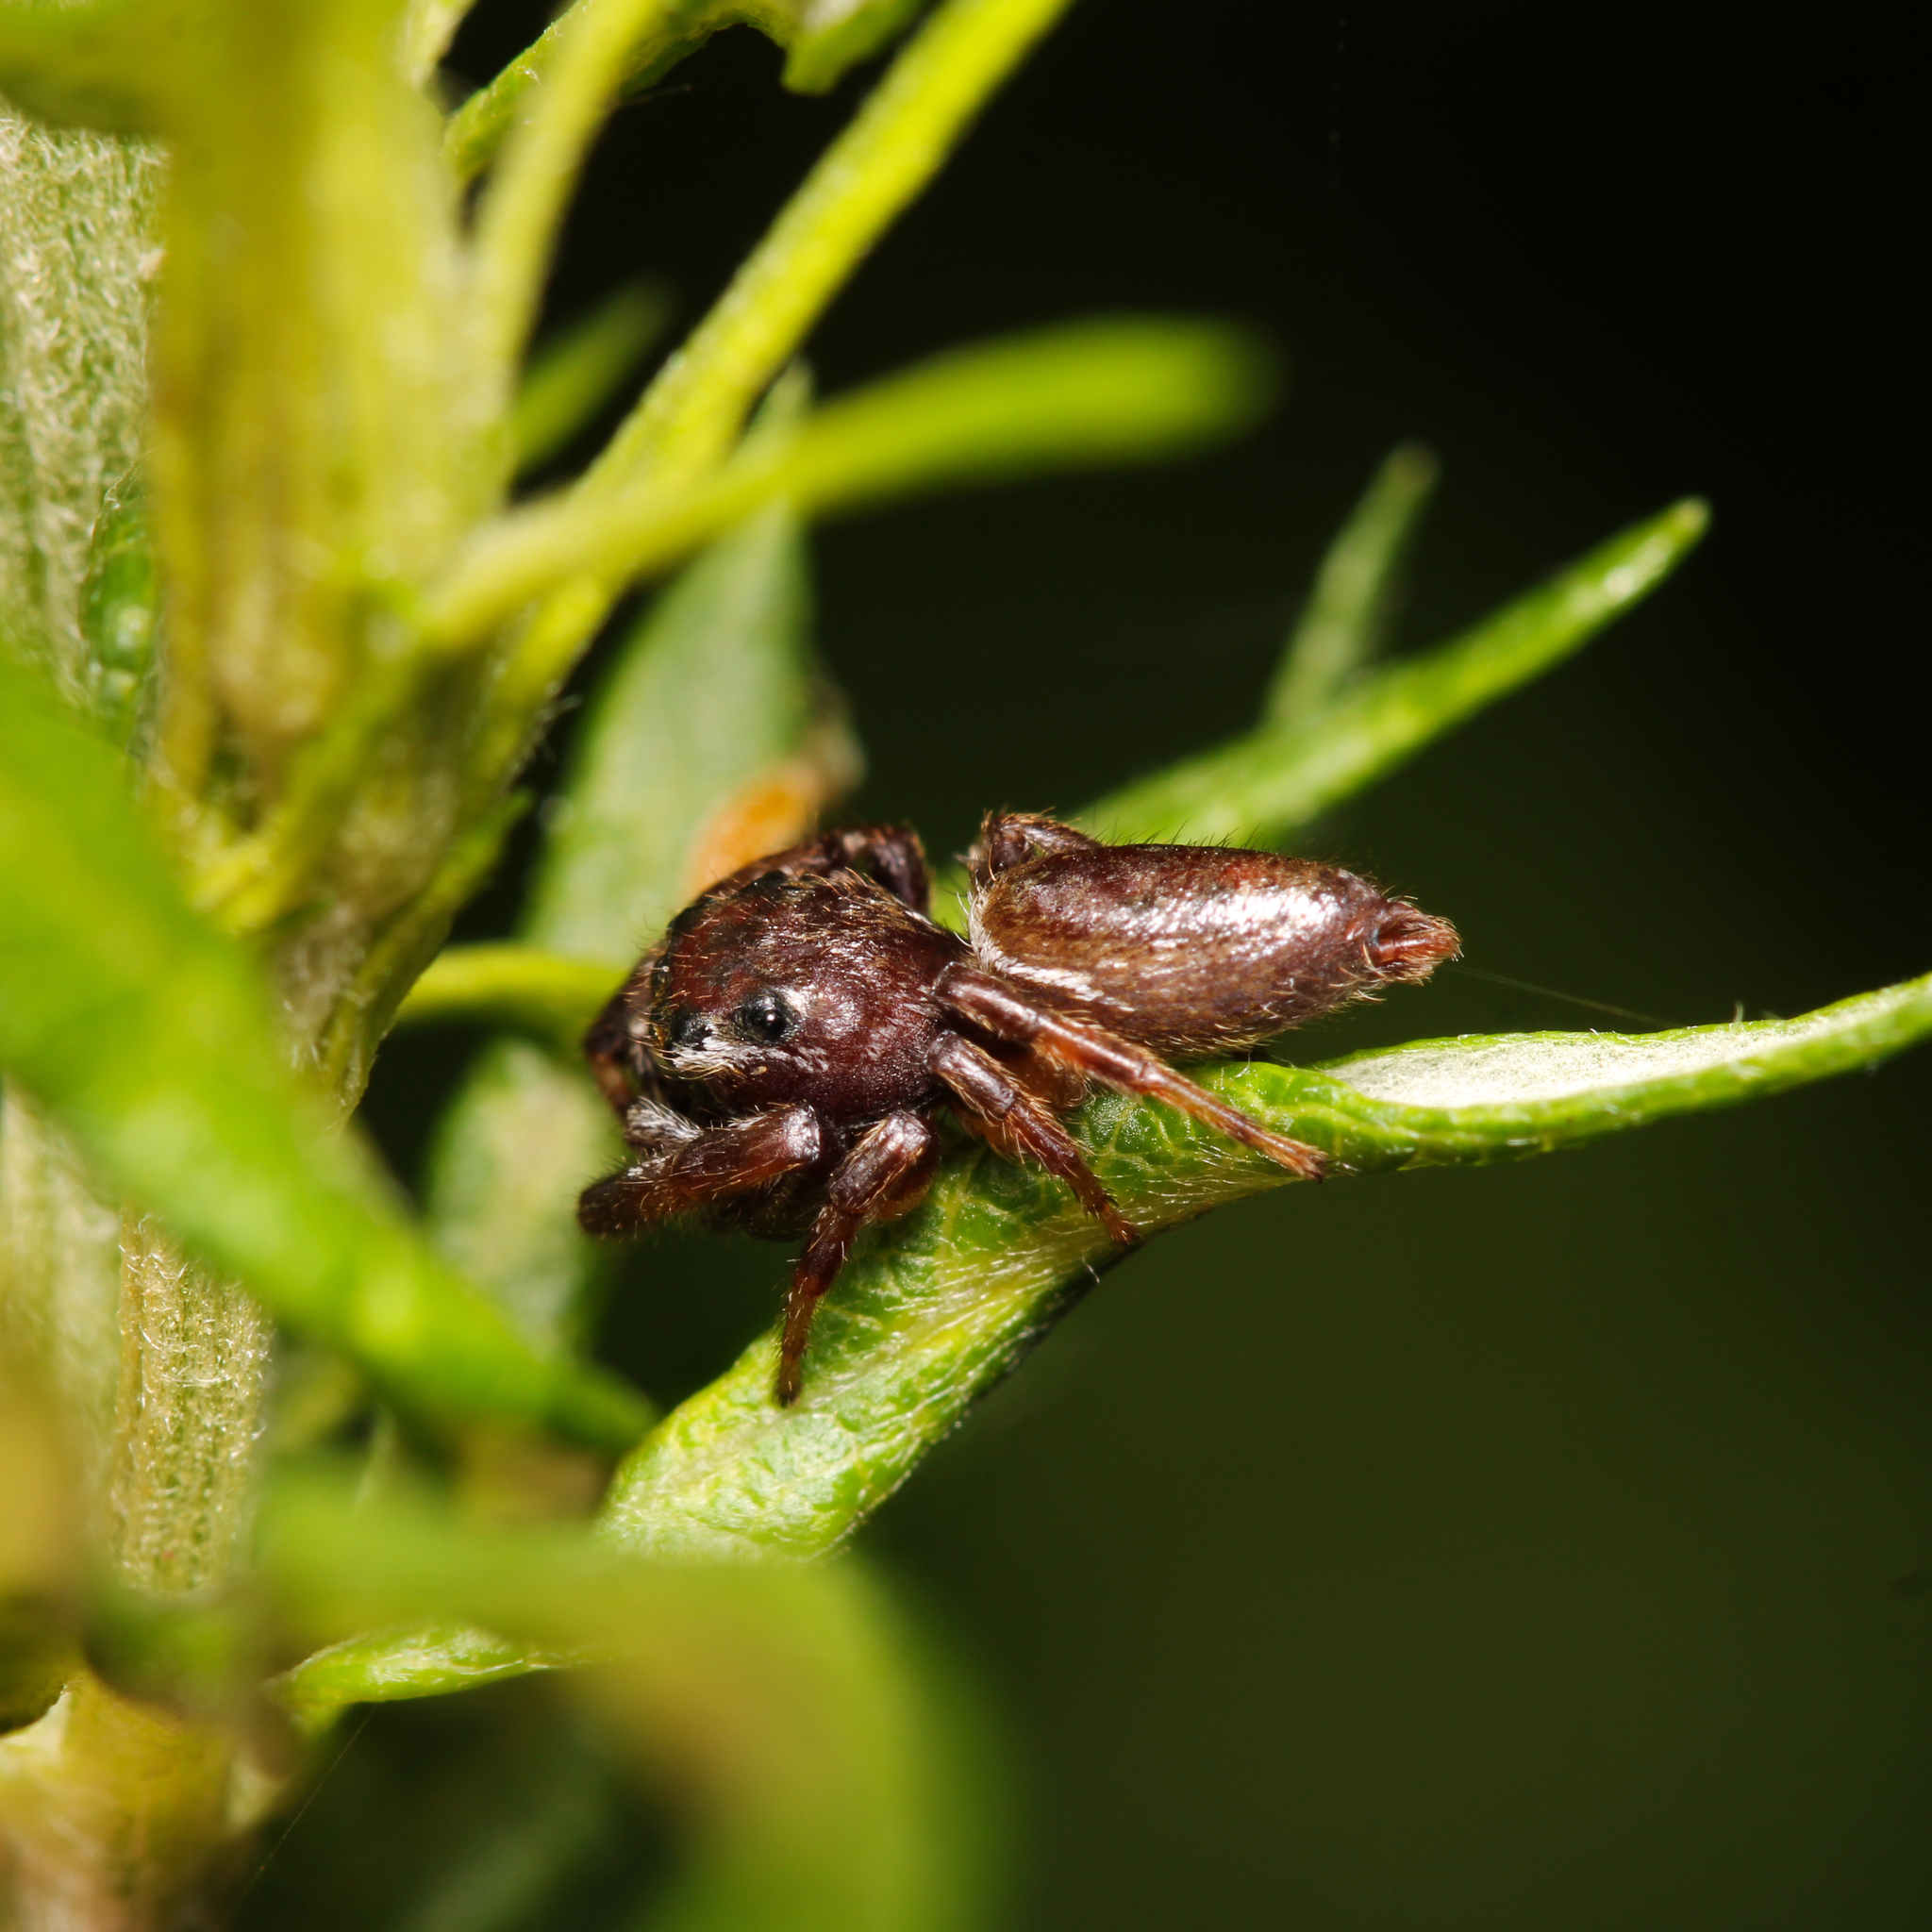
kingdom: Animalia
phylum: Arthropoda
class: Arachnida
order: Araneae
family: Salticidae
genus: Eris
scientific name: Eris floridana
